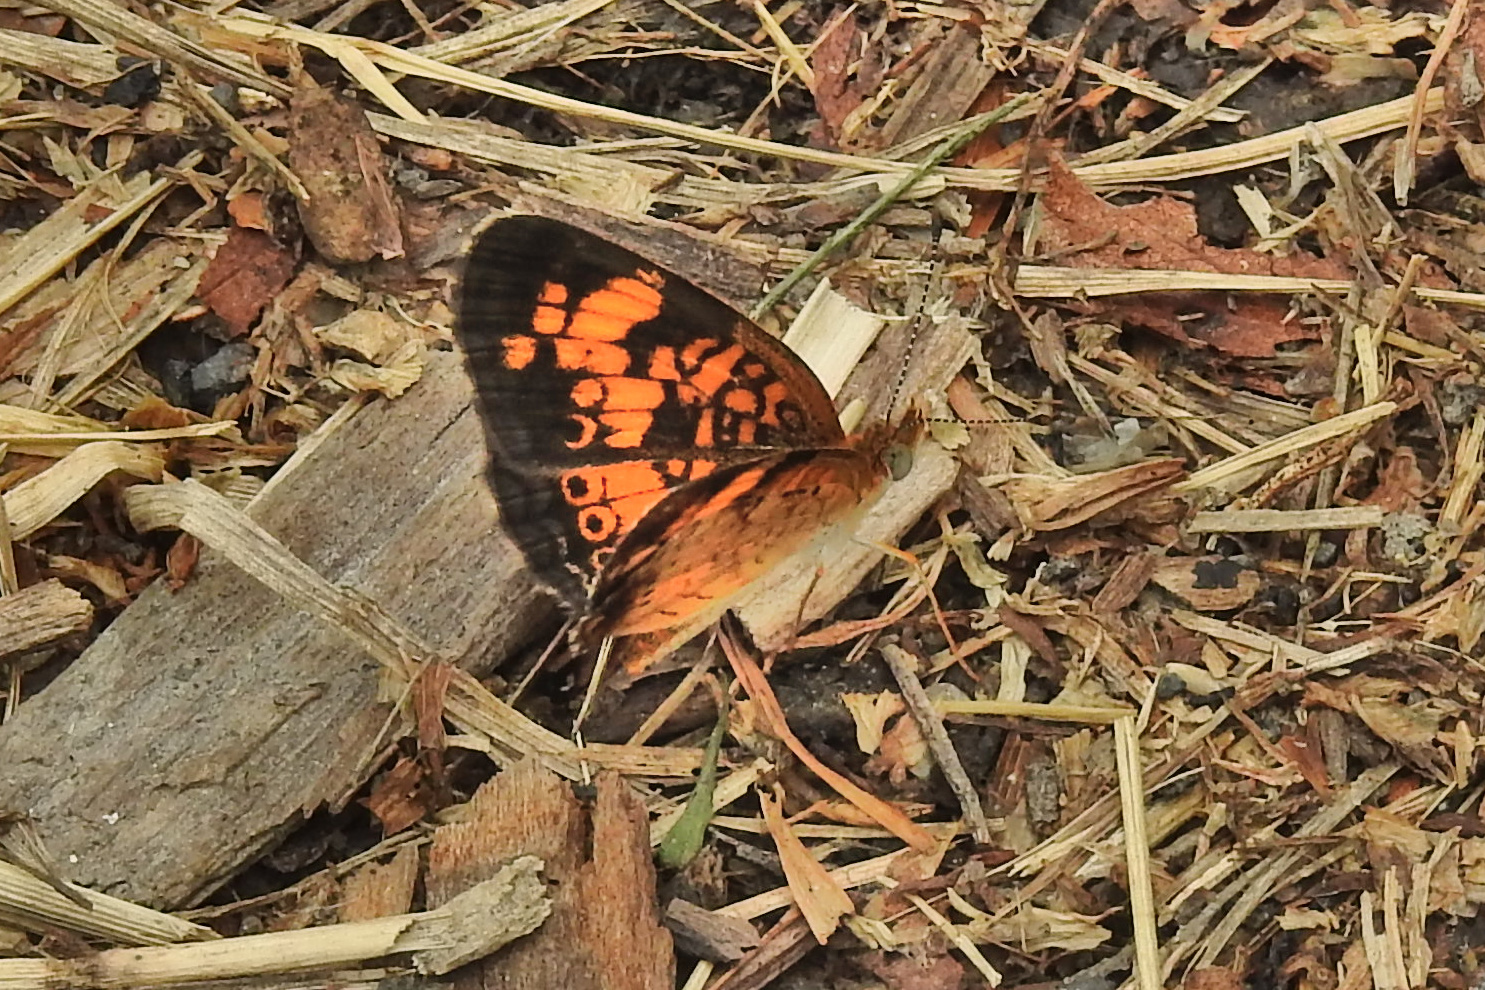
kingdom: Animalia
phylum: Arthropoda
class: Insecta
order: Lepidoptera
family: Nymphalidae
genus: Phyciodes
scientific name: Phyciodes tharos
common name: Pearl crescent
